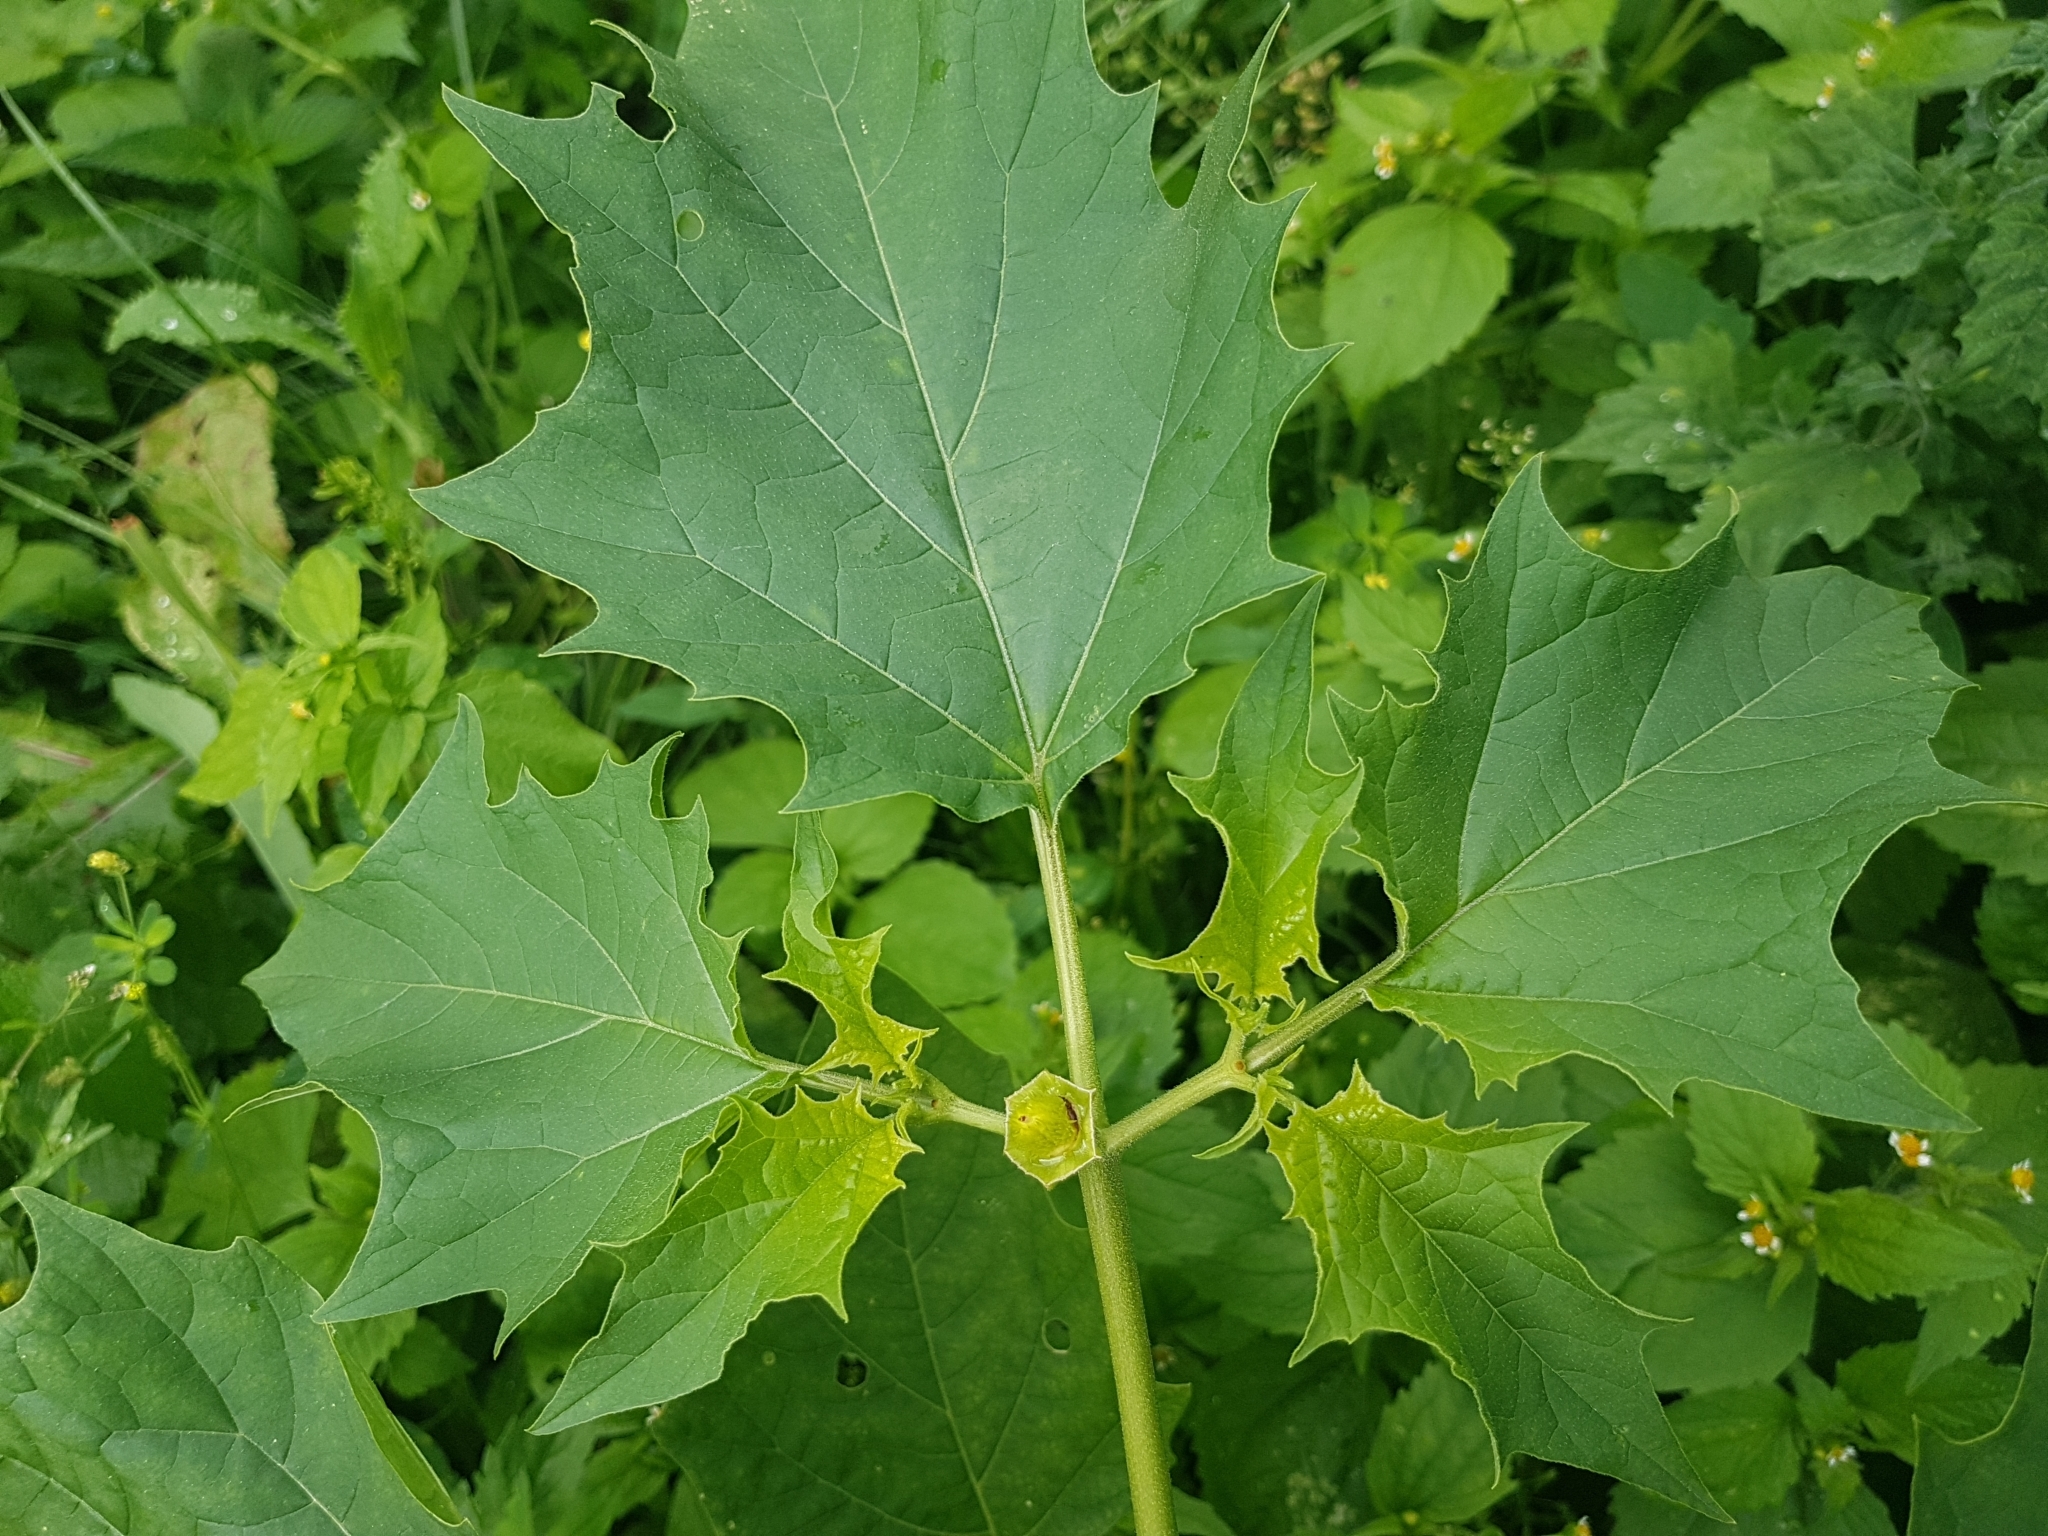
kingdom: Plantae
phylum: Tracheophyta
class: Magnoliopsida
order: Solanales
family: Solanaceae
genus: Datura
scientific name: Datura stramonium
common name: Thorn-apple
